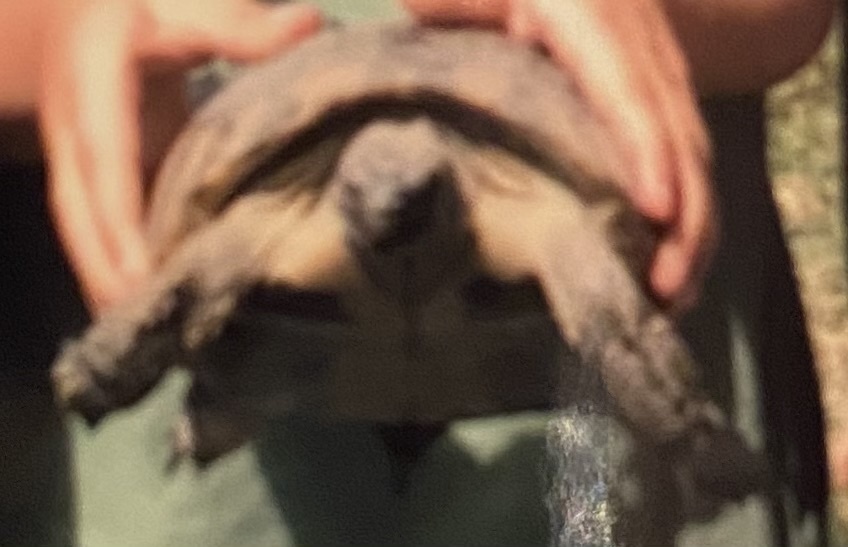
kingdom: Animalia
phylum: Chordata
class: Testudines
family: Testudinidae
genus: Testudo
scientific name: Testudo hermanni
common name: Hermann's tortoise
